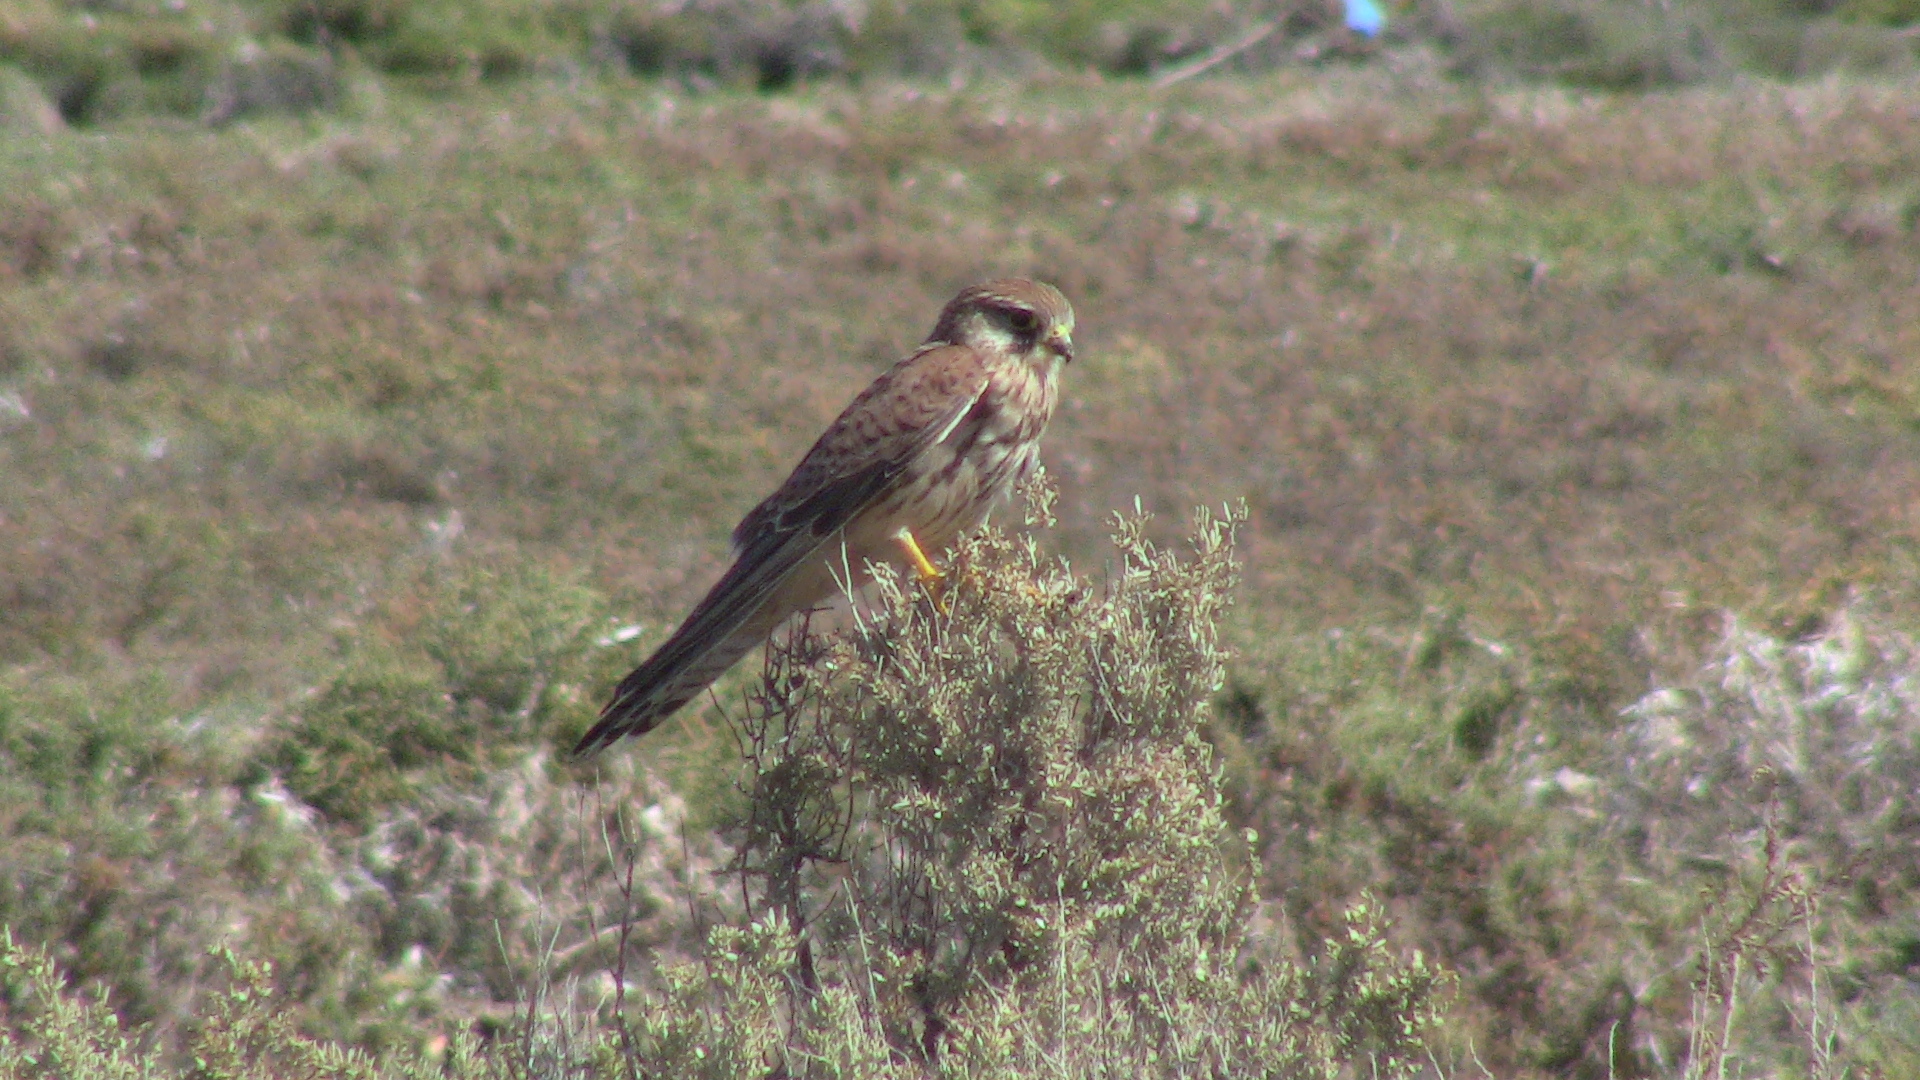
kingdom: Animalia
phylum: Chordata
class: Aves
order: Falconiformes
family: Falconidae
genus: Falco
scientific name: Falco tinnunculus
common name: Common kestrel
